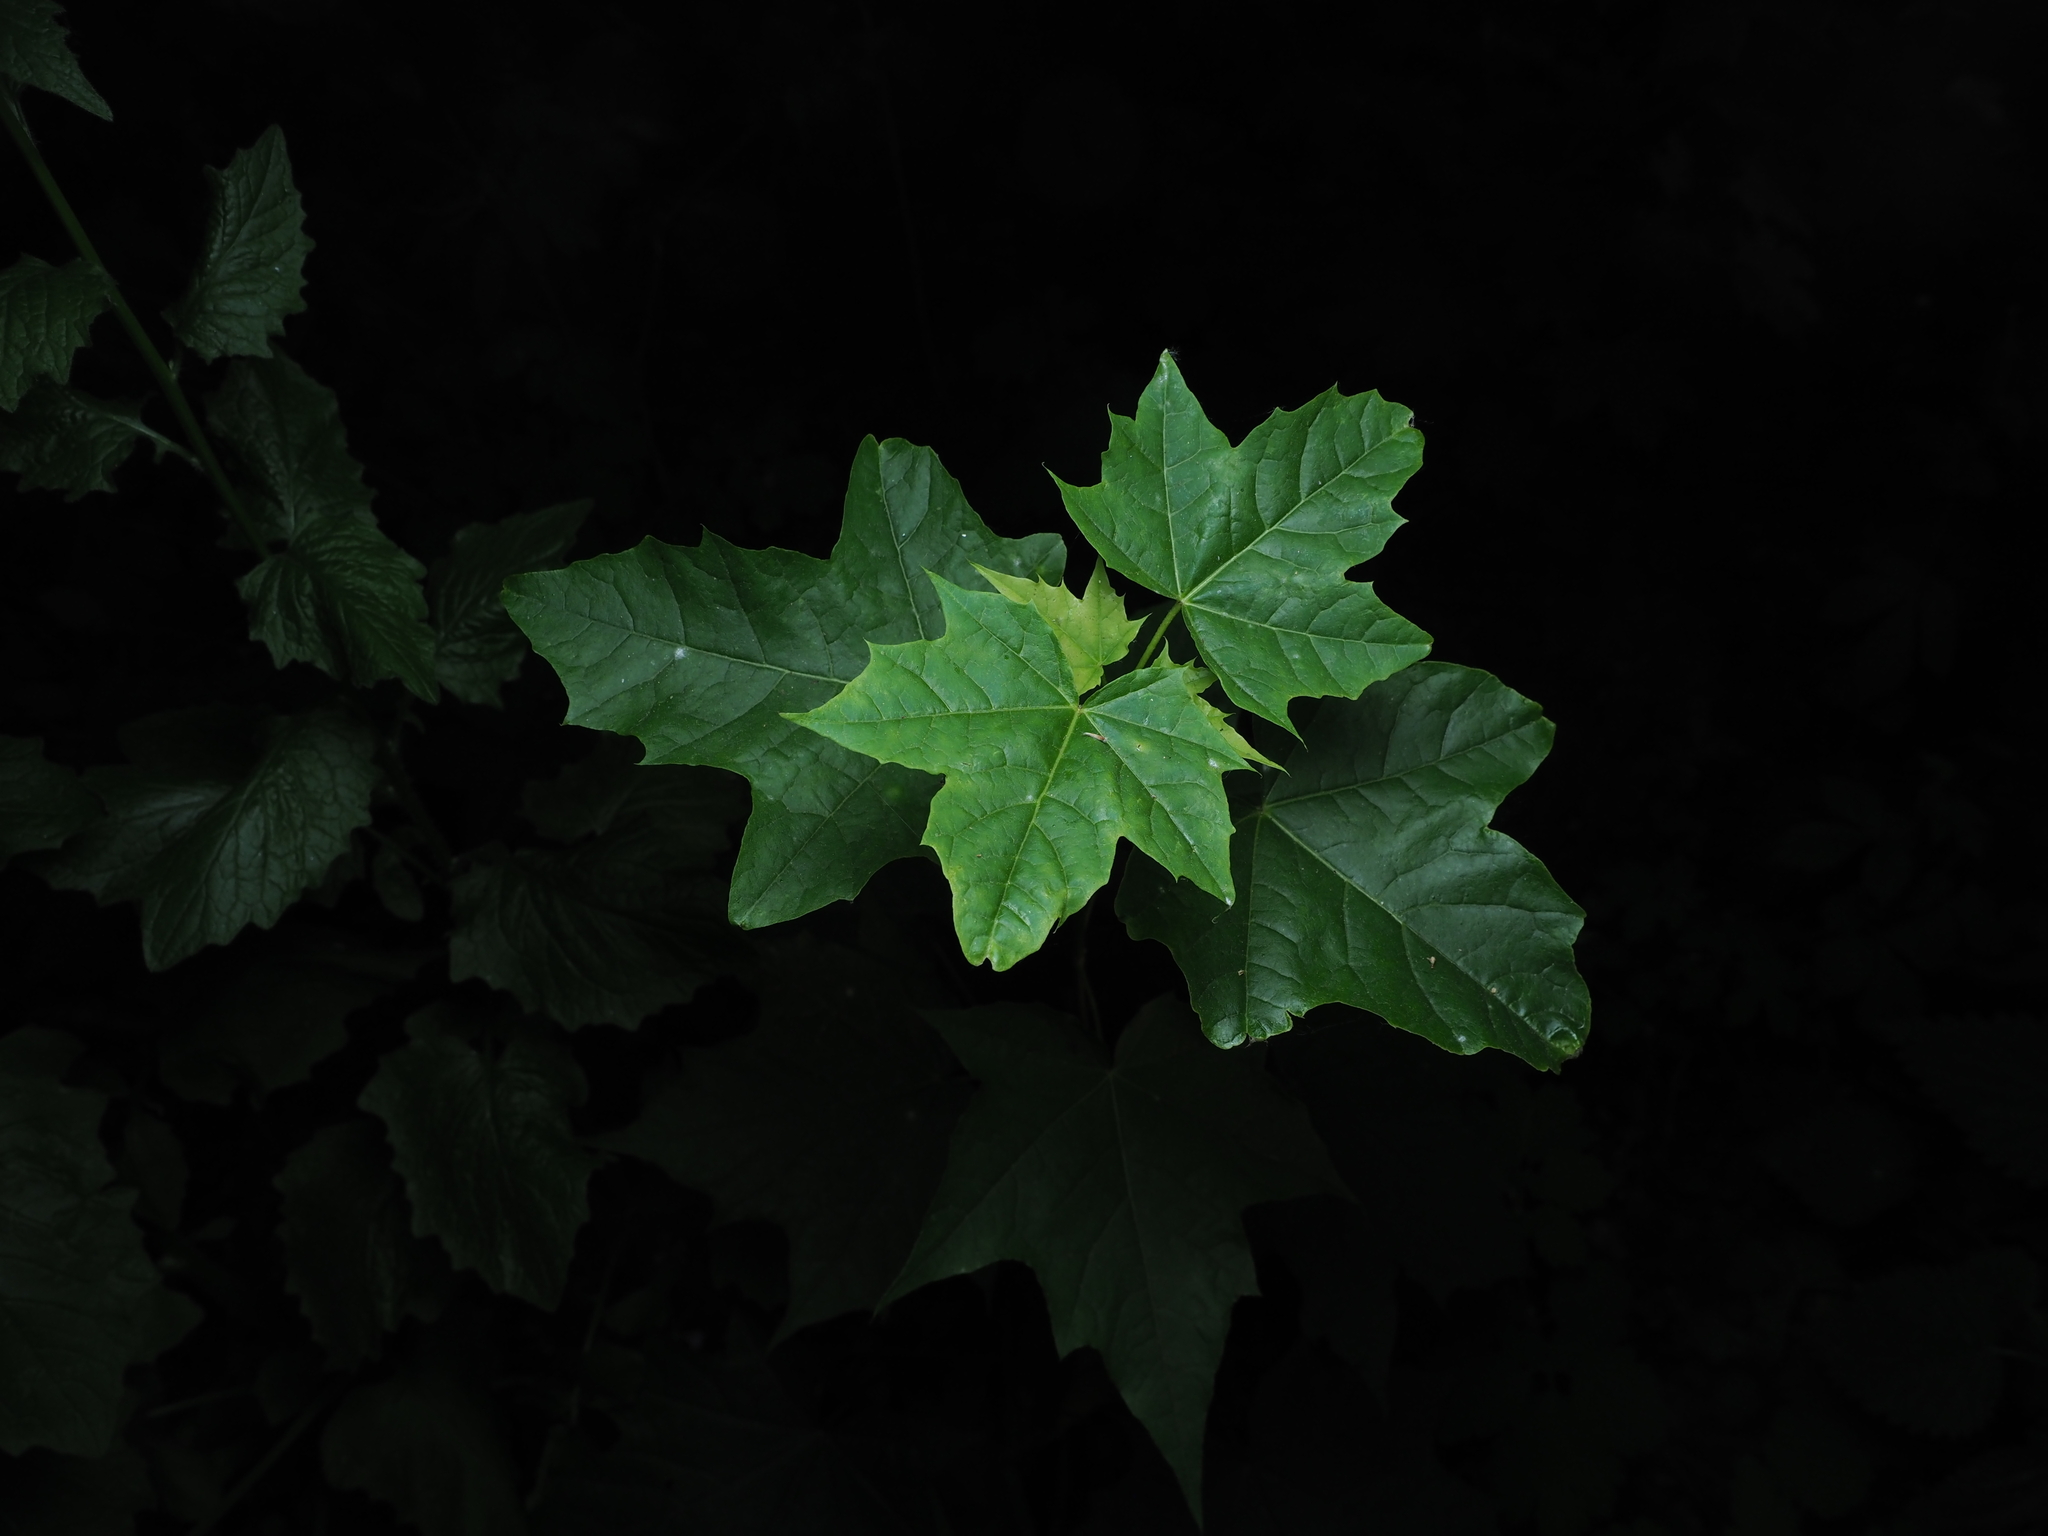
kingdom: Plantae
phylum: Tracheophyta
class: Magnoliopsida
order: Sapindales
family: Sapindaceae
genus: Acer
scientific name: Acer platanoides
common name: Norway maple
